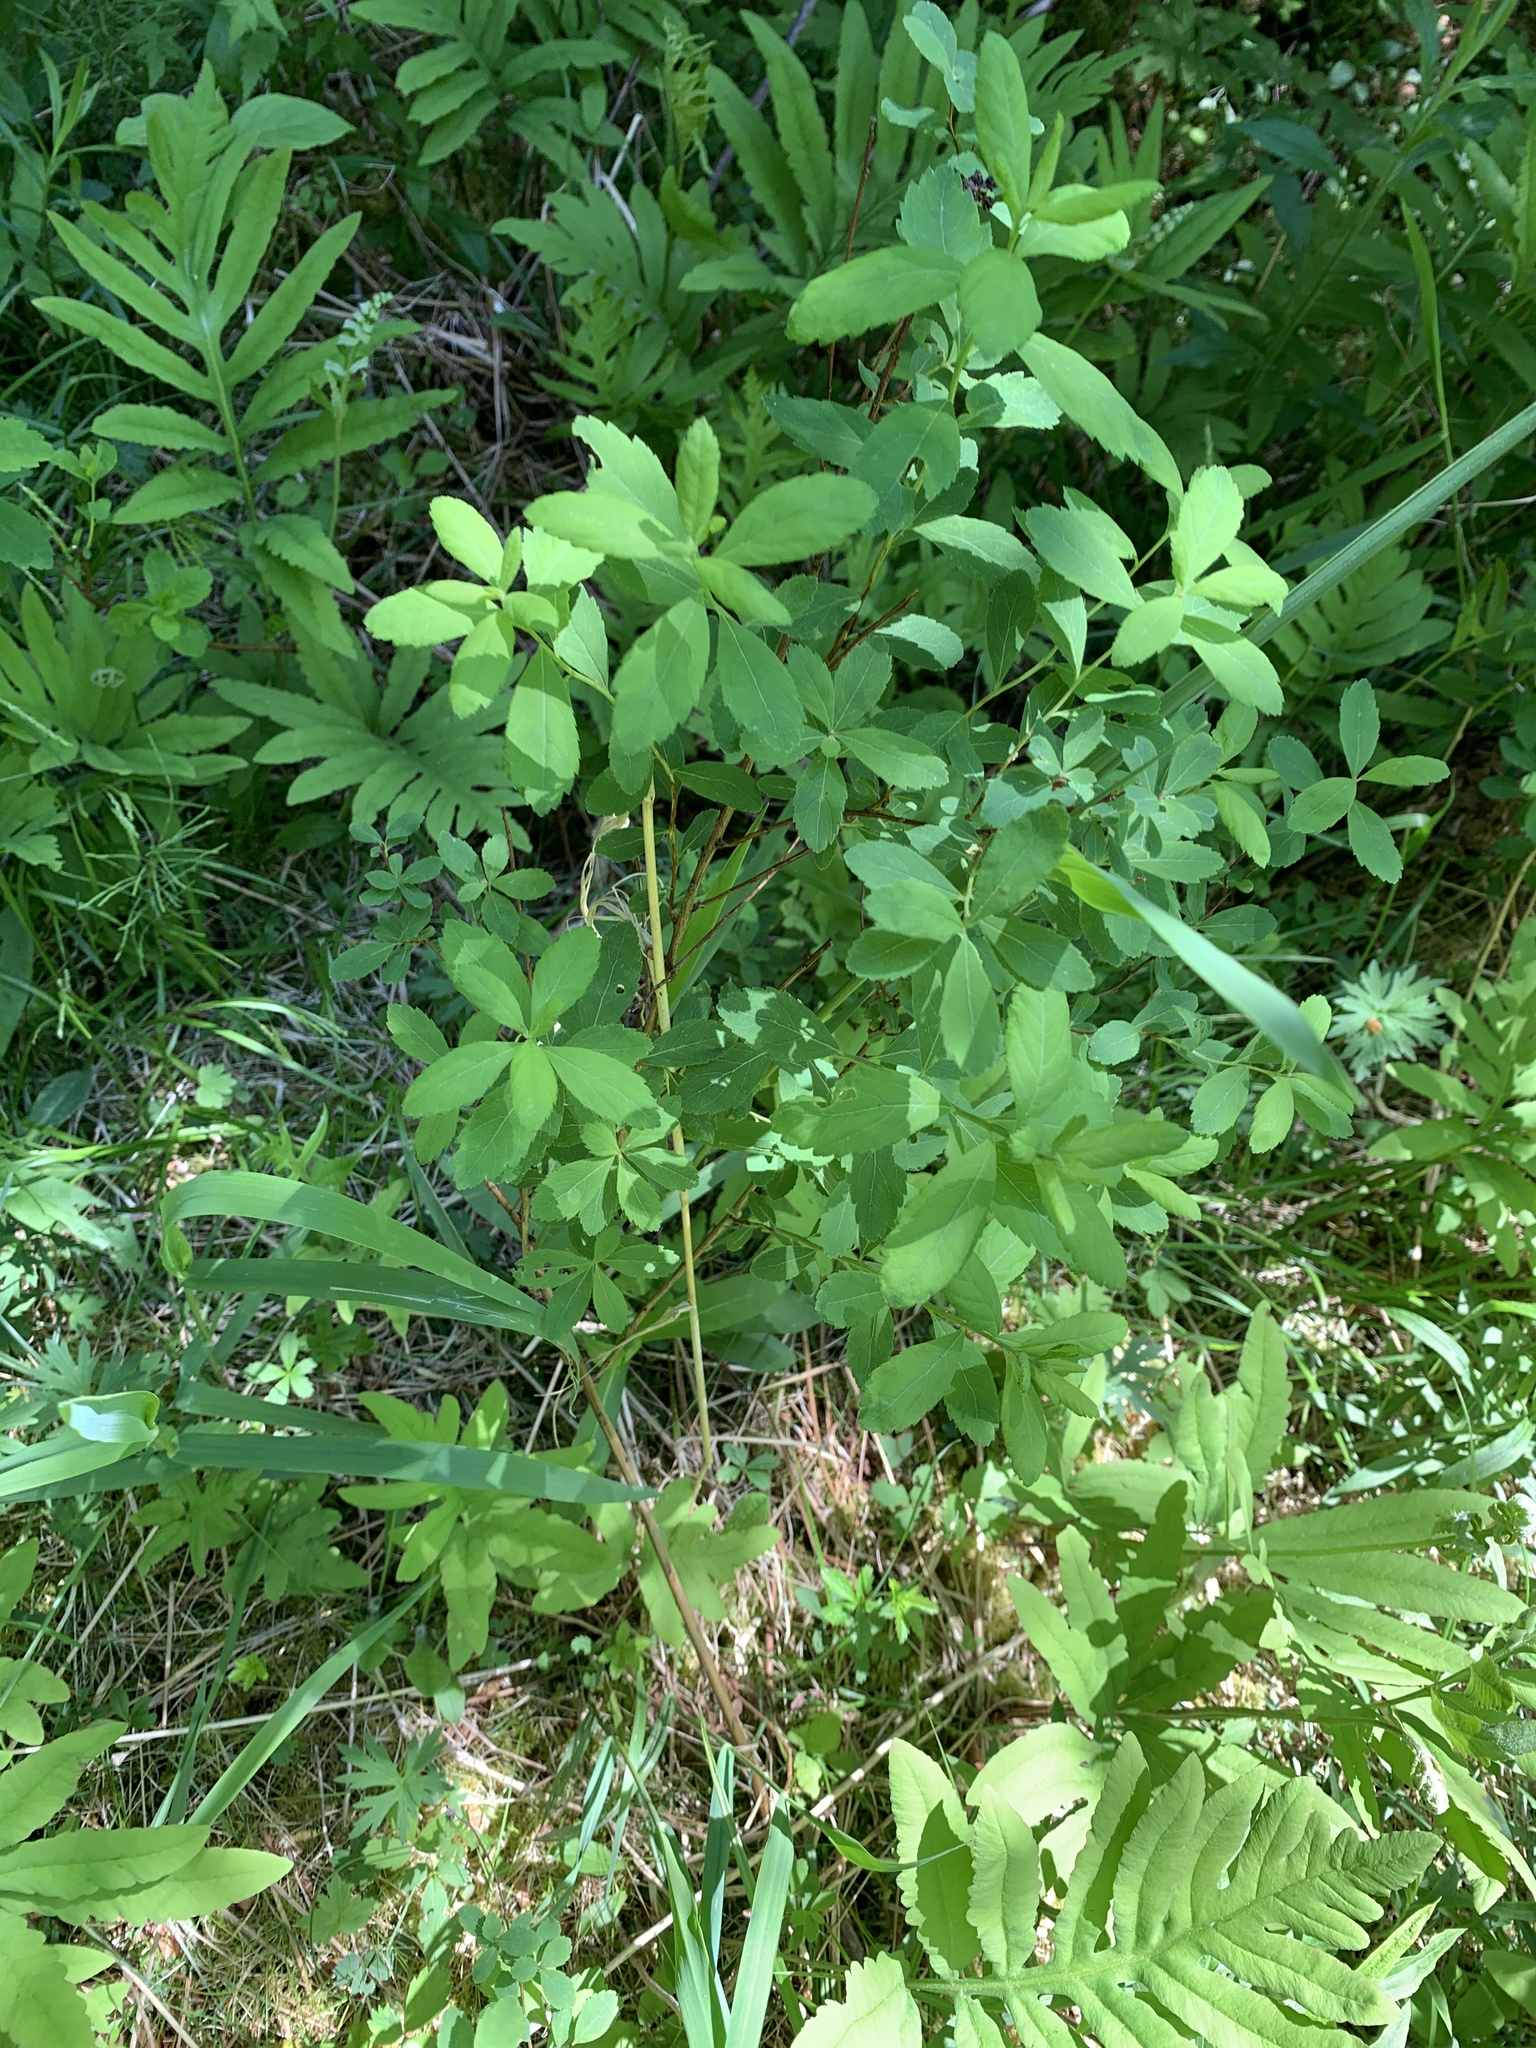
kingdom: Plantae
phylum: Tracheophyta
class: Magnoliopsida
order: Rosales
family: Rosaceae
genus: Spiraea
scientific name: Spiraea alba
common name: Pale bridewort
